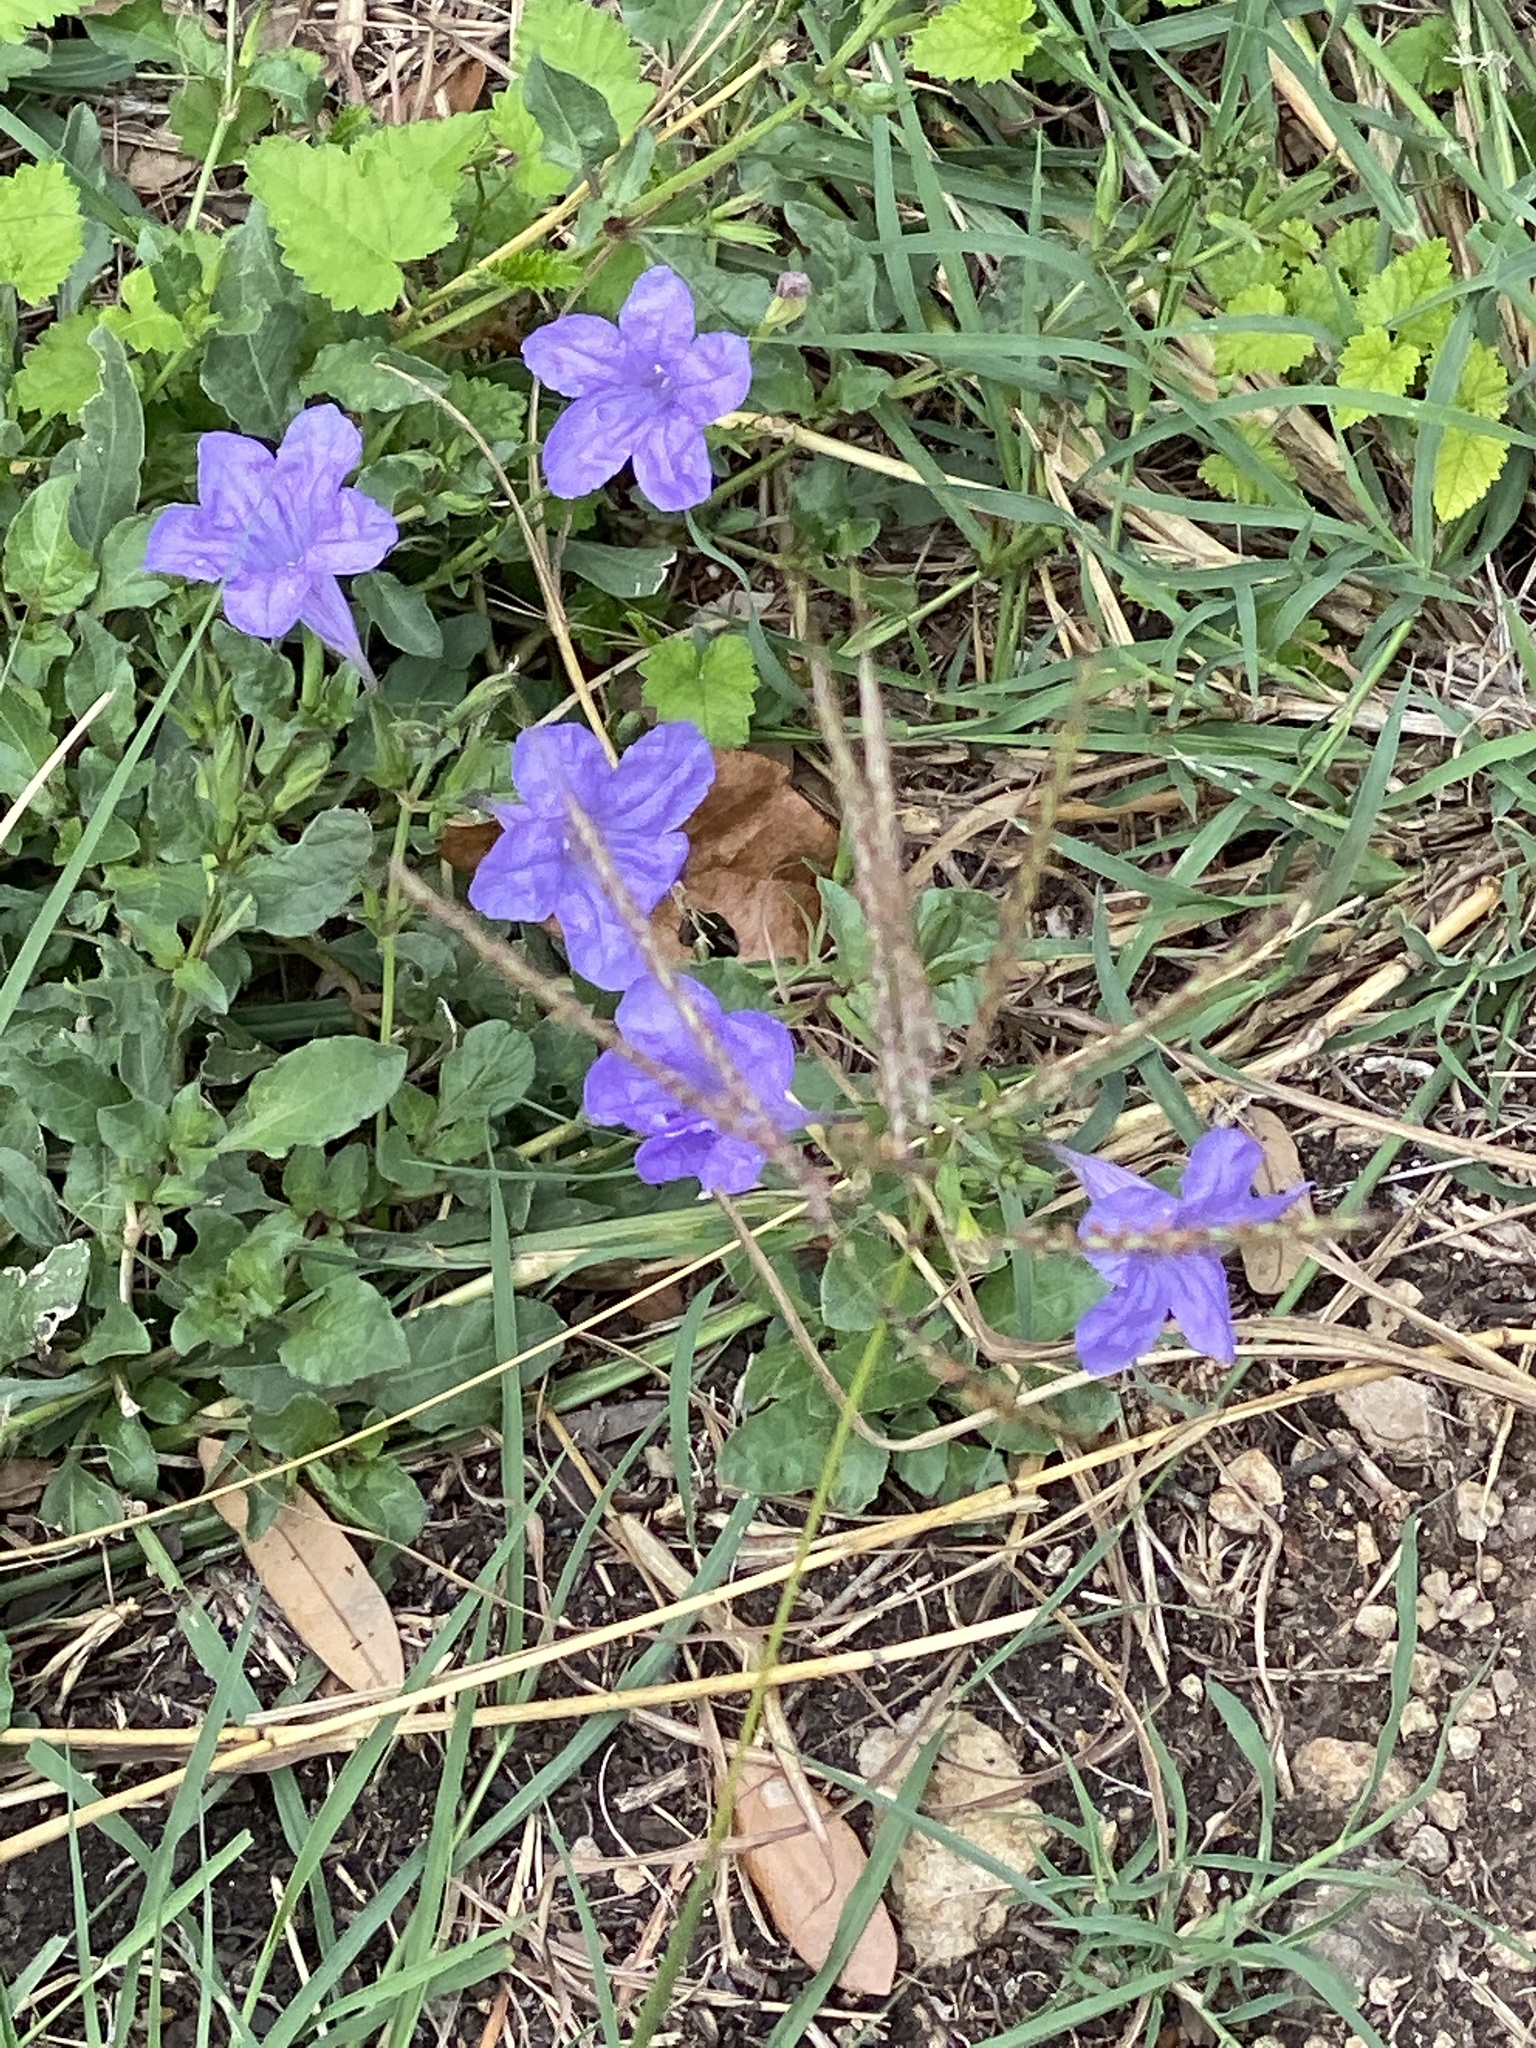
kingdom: Plantae
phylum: Tracheophyta
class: Magnoliopsida
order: Lamiales
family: Acanthaceae
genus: Ruellia
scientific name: Ruellia ciliatiflora
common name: Hairyflower wild petunia
